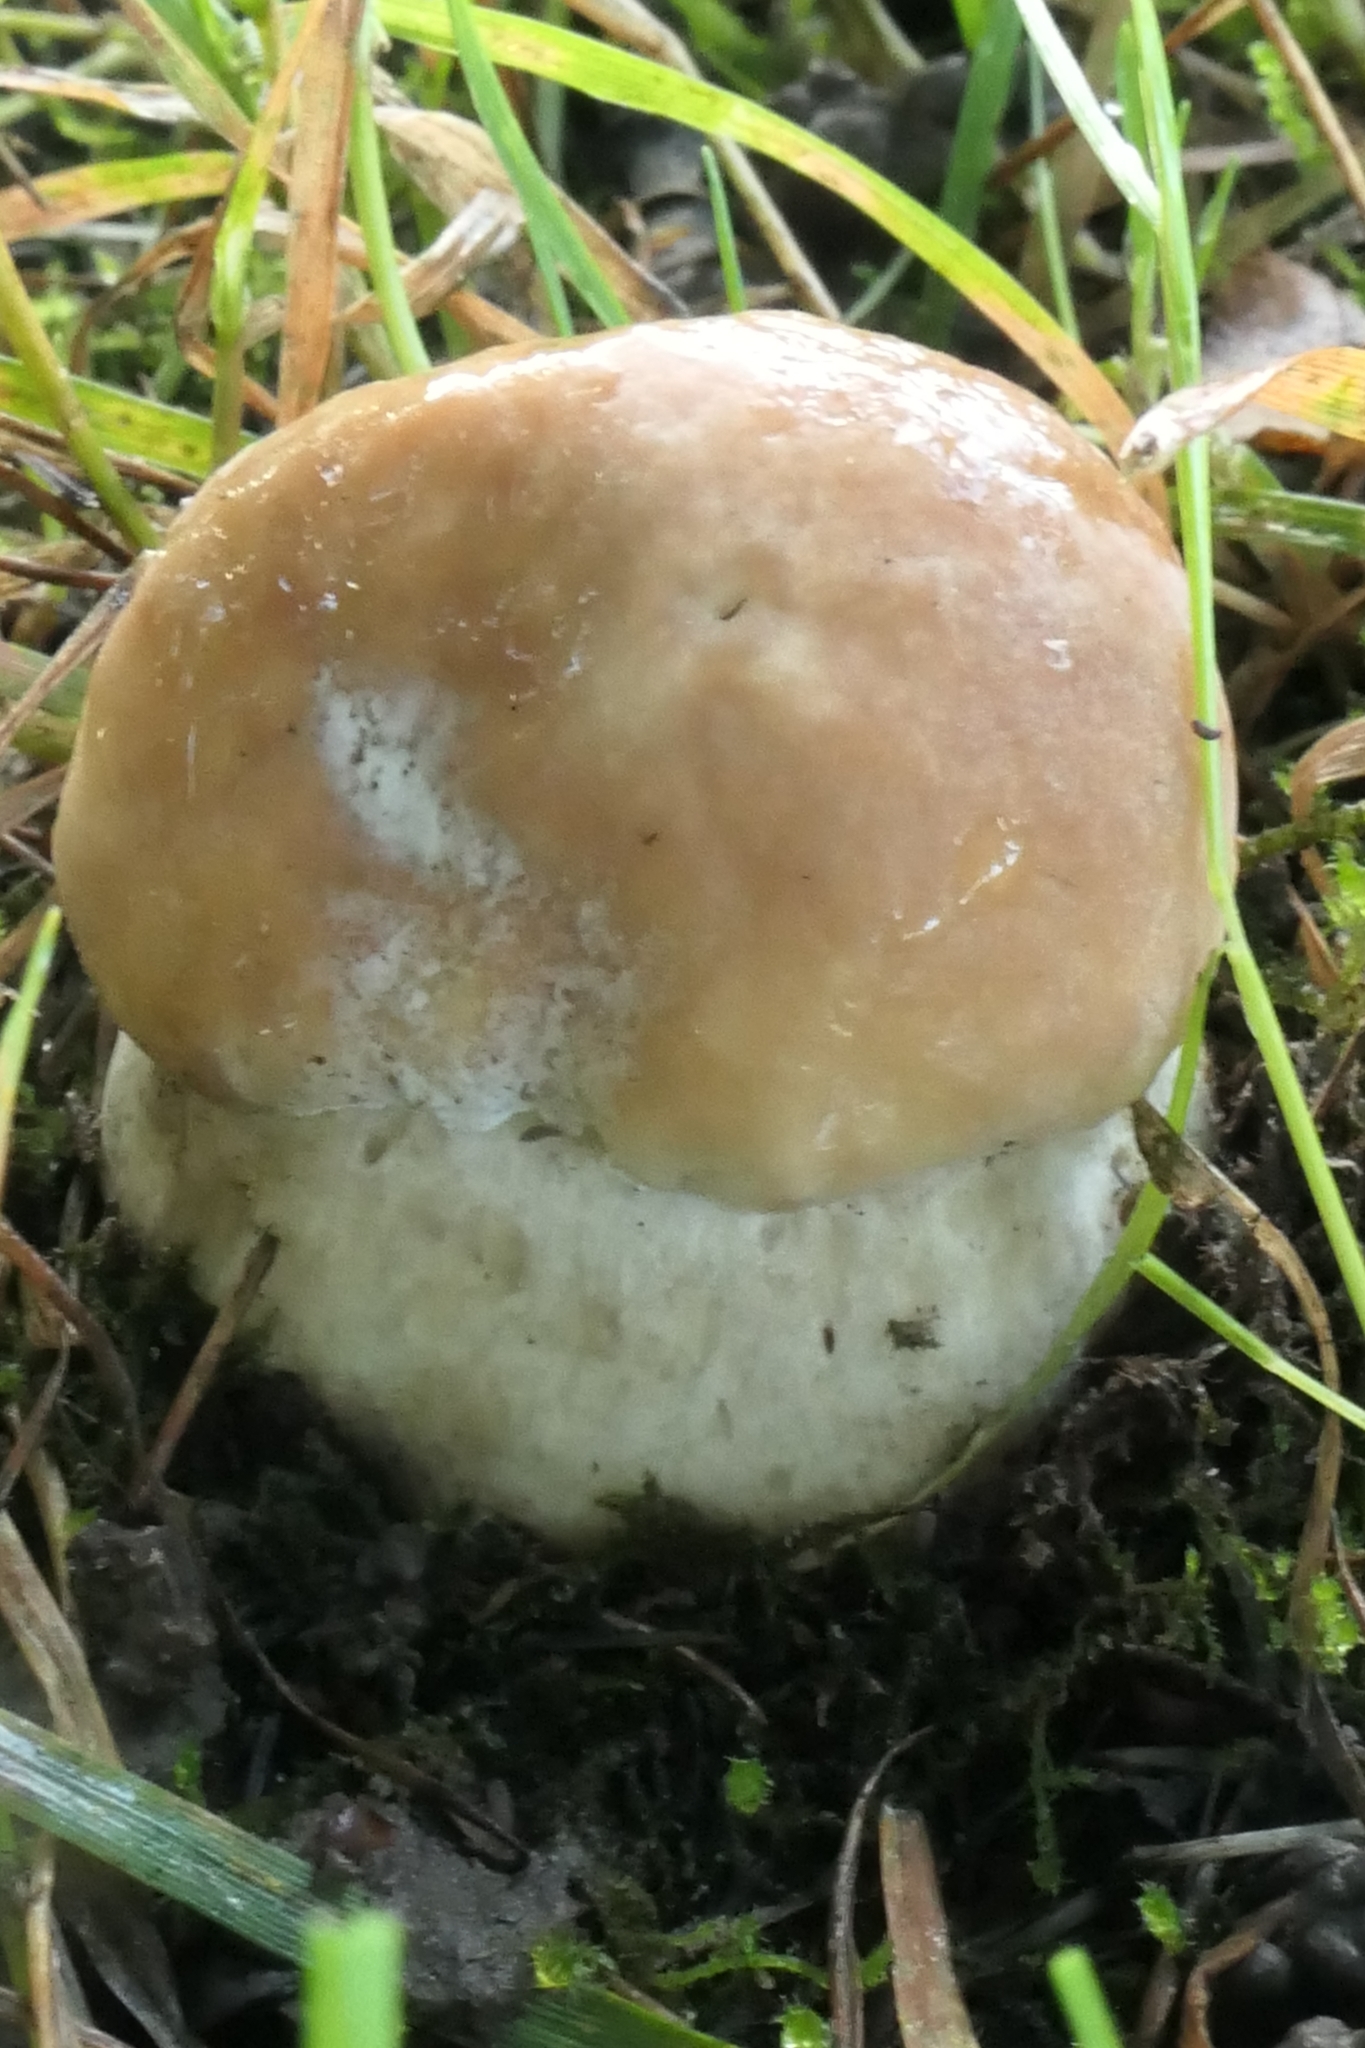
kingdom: Fungi
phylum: Basidiomycota
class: Agaricomycetes
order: Boletales
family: Boletaceae
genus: Boletus
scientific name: Boletus edulis
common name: Cep
